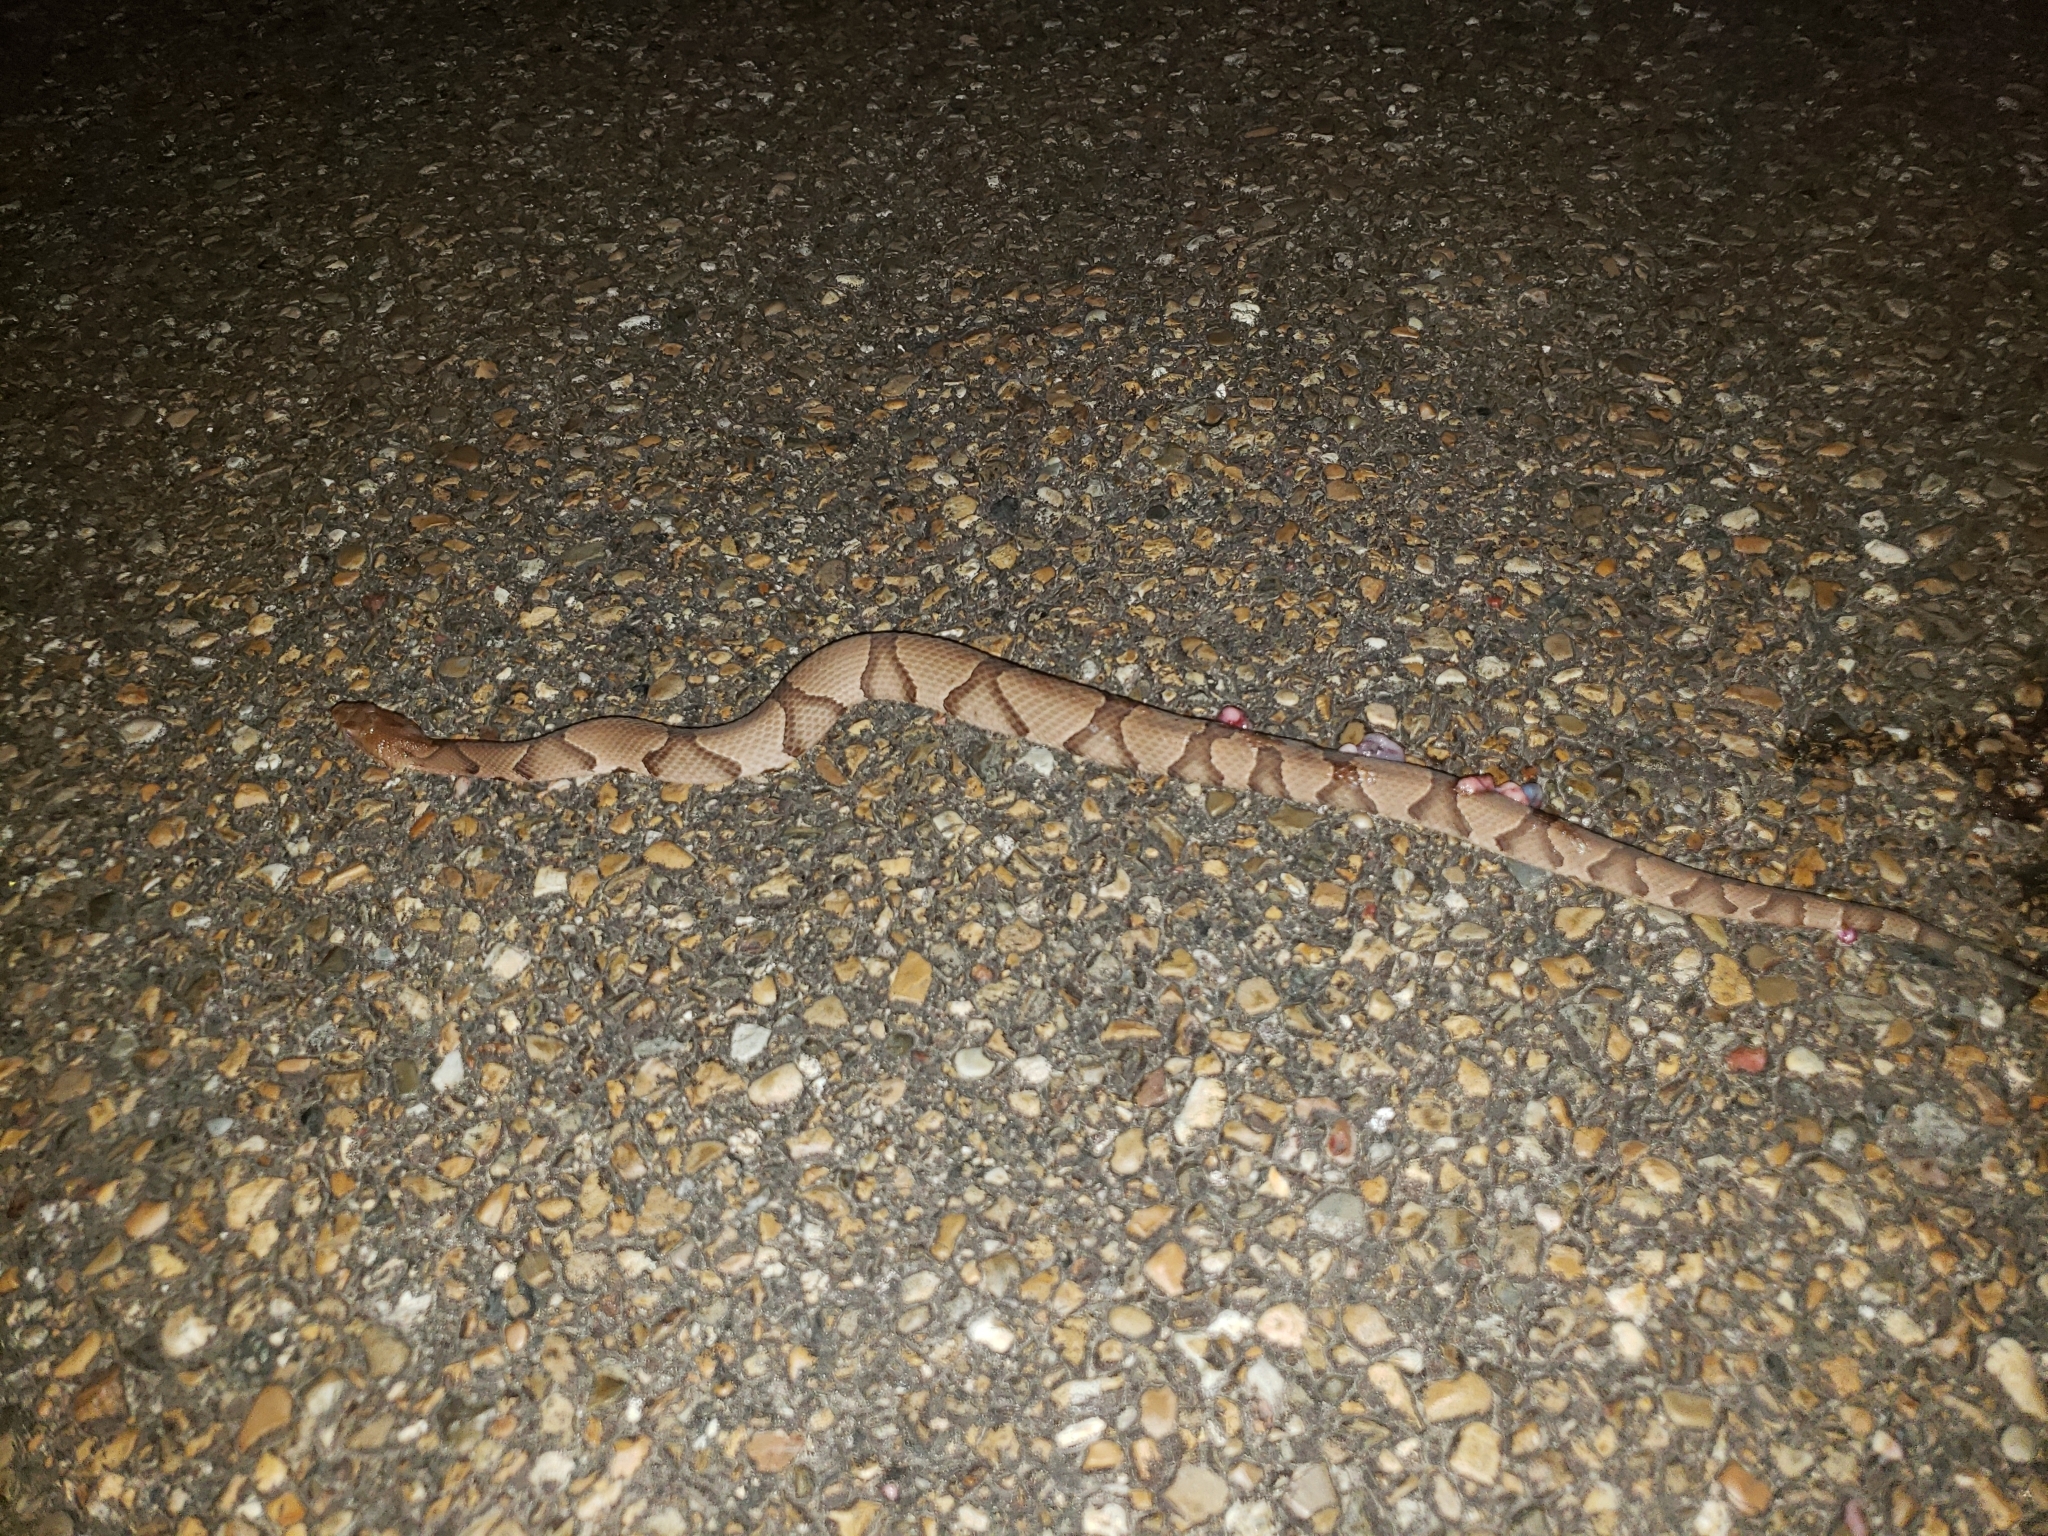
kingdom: Animalia
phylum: Chordata
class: Squamata
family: Viperidae
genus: Agkistrodon
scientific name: Agkistrodon contortrix
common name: Northern copperhead
